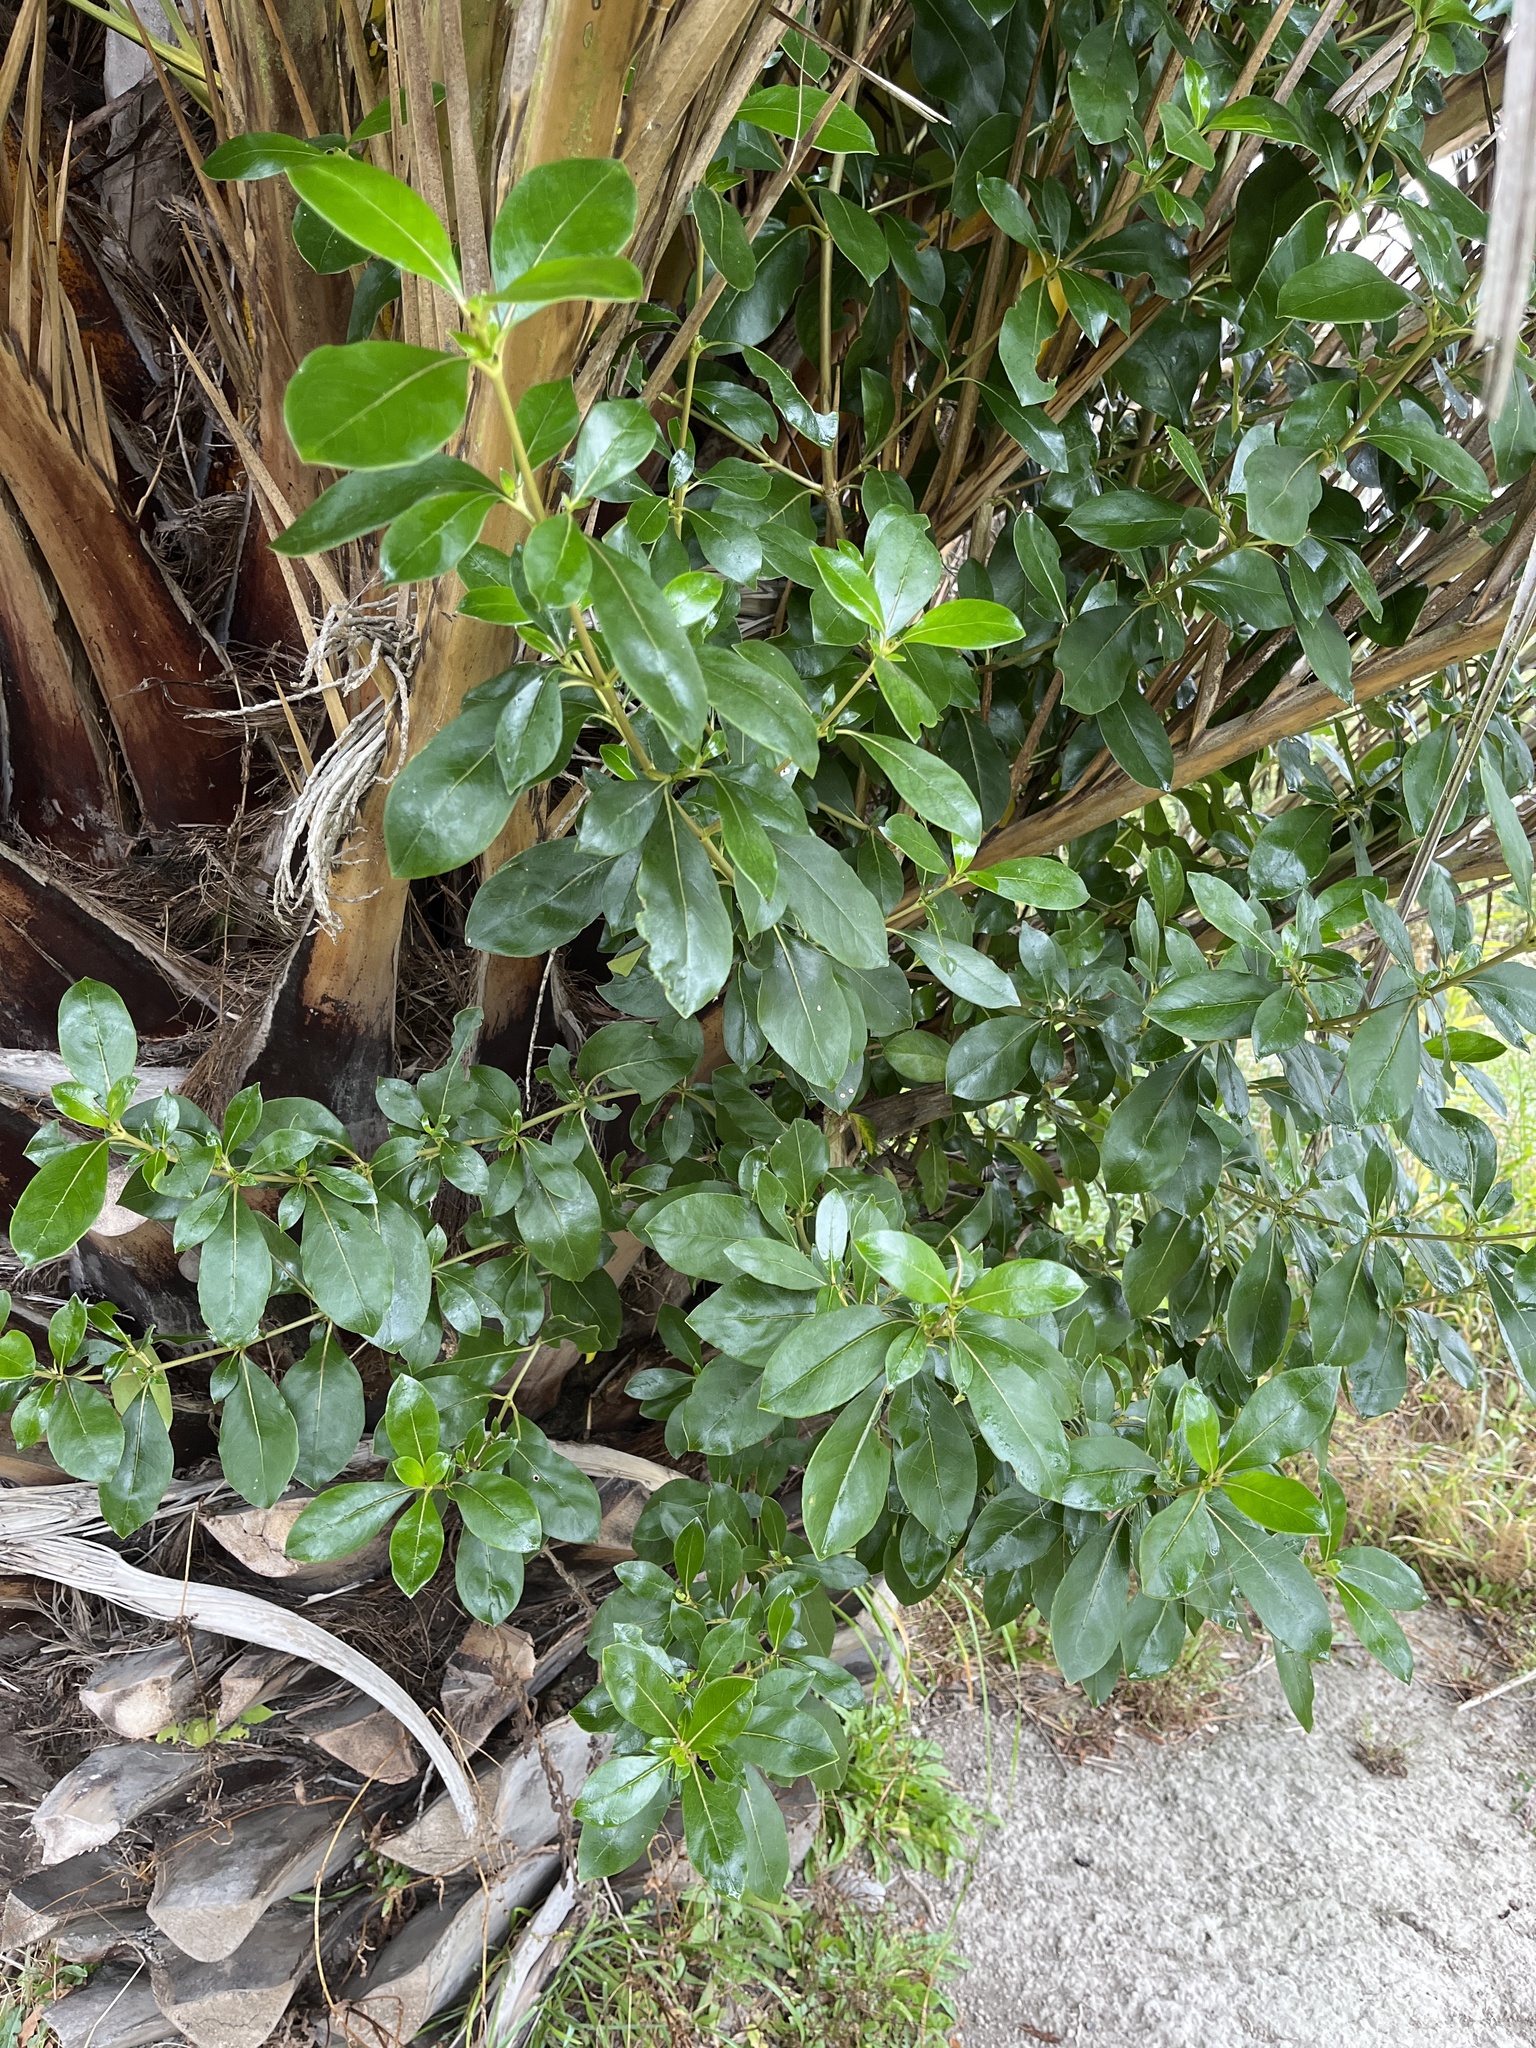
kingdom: Plantae
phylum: Tracheophyta
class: Magnoliopsida
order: Gentianales
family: Rubiaceae
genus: Coprosma
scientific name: Coprosma robusta
